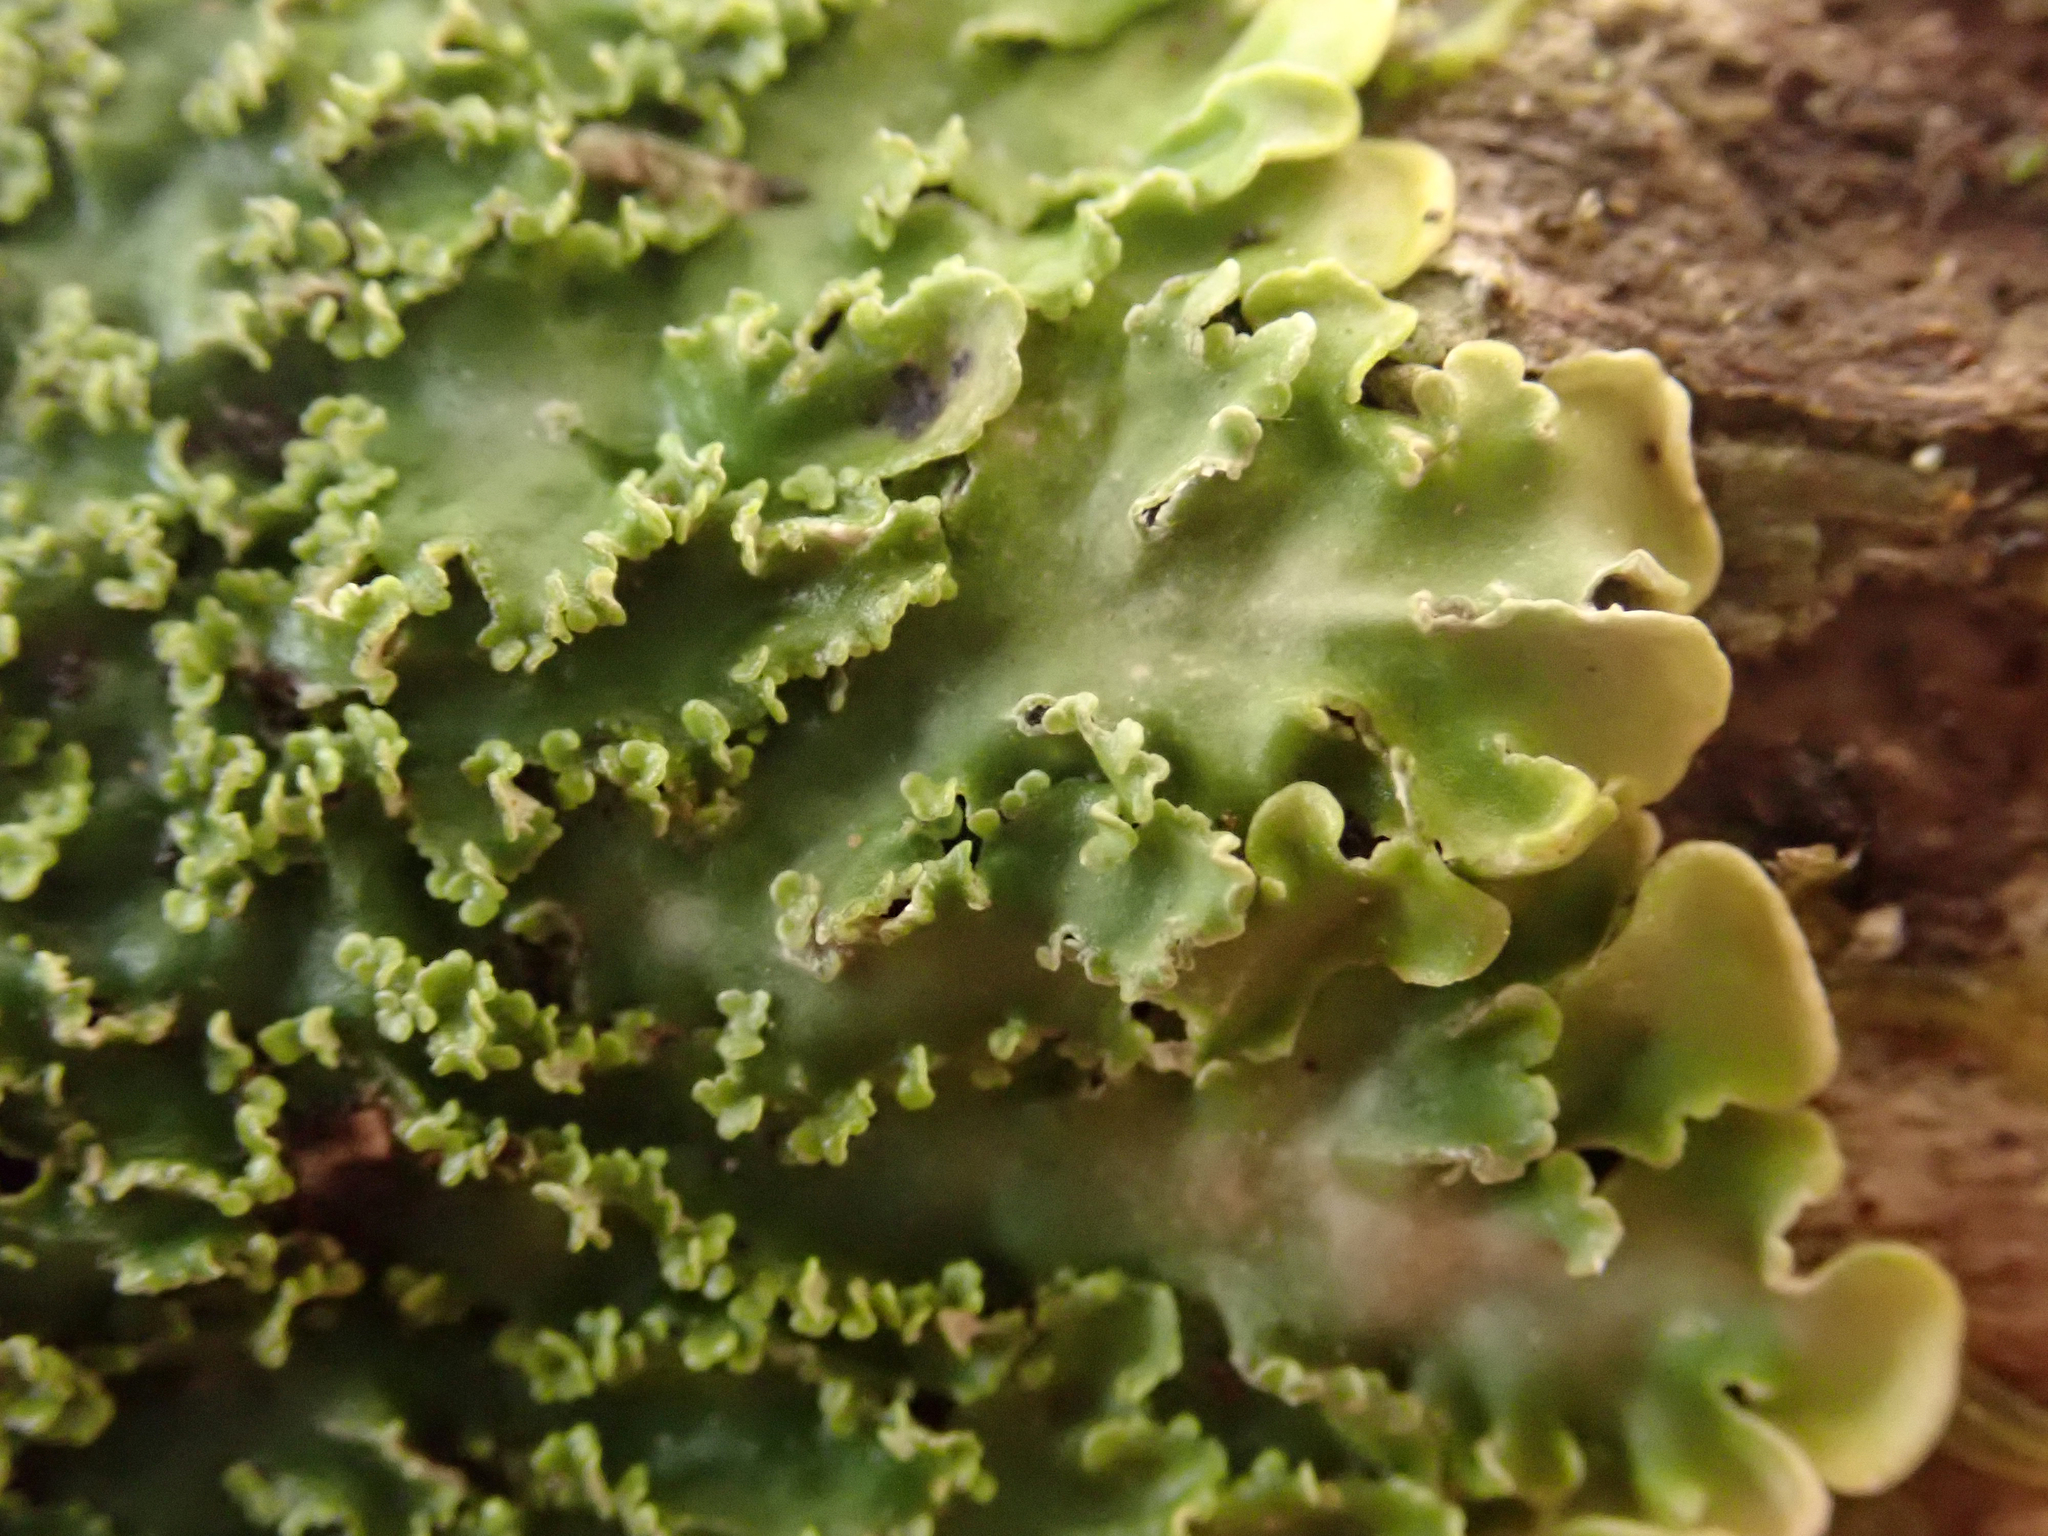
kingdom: Fungi
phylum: Ascomycota
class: Lecanoromycetes
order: Peltigerales
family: Pannariaceae
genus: Pannaria
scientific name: Pannaria minutiphylla
